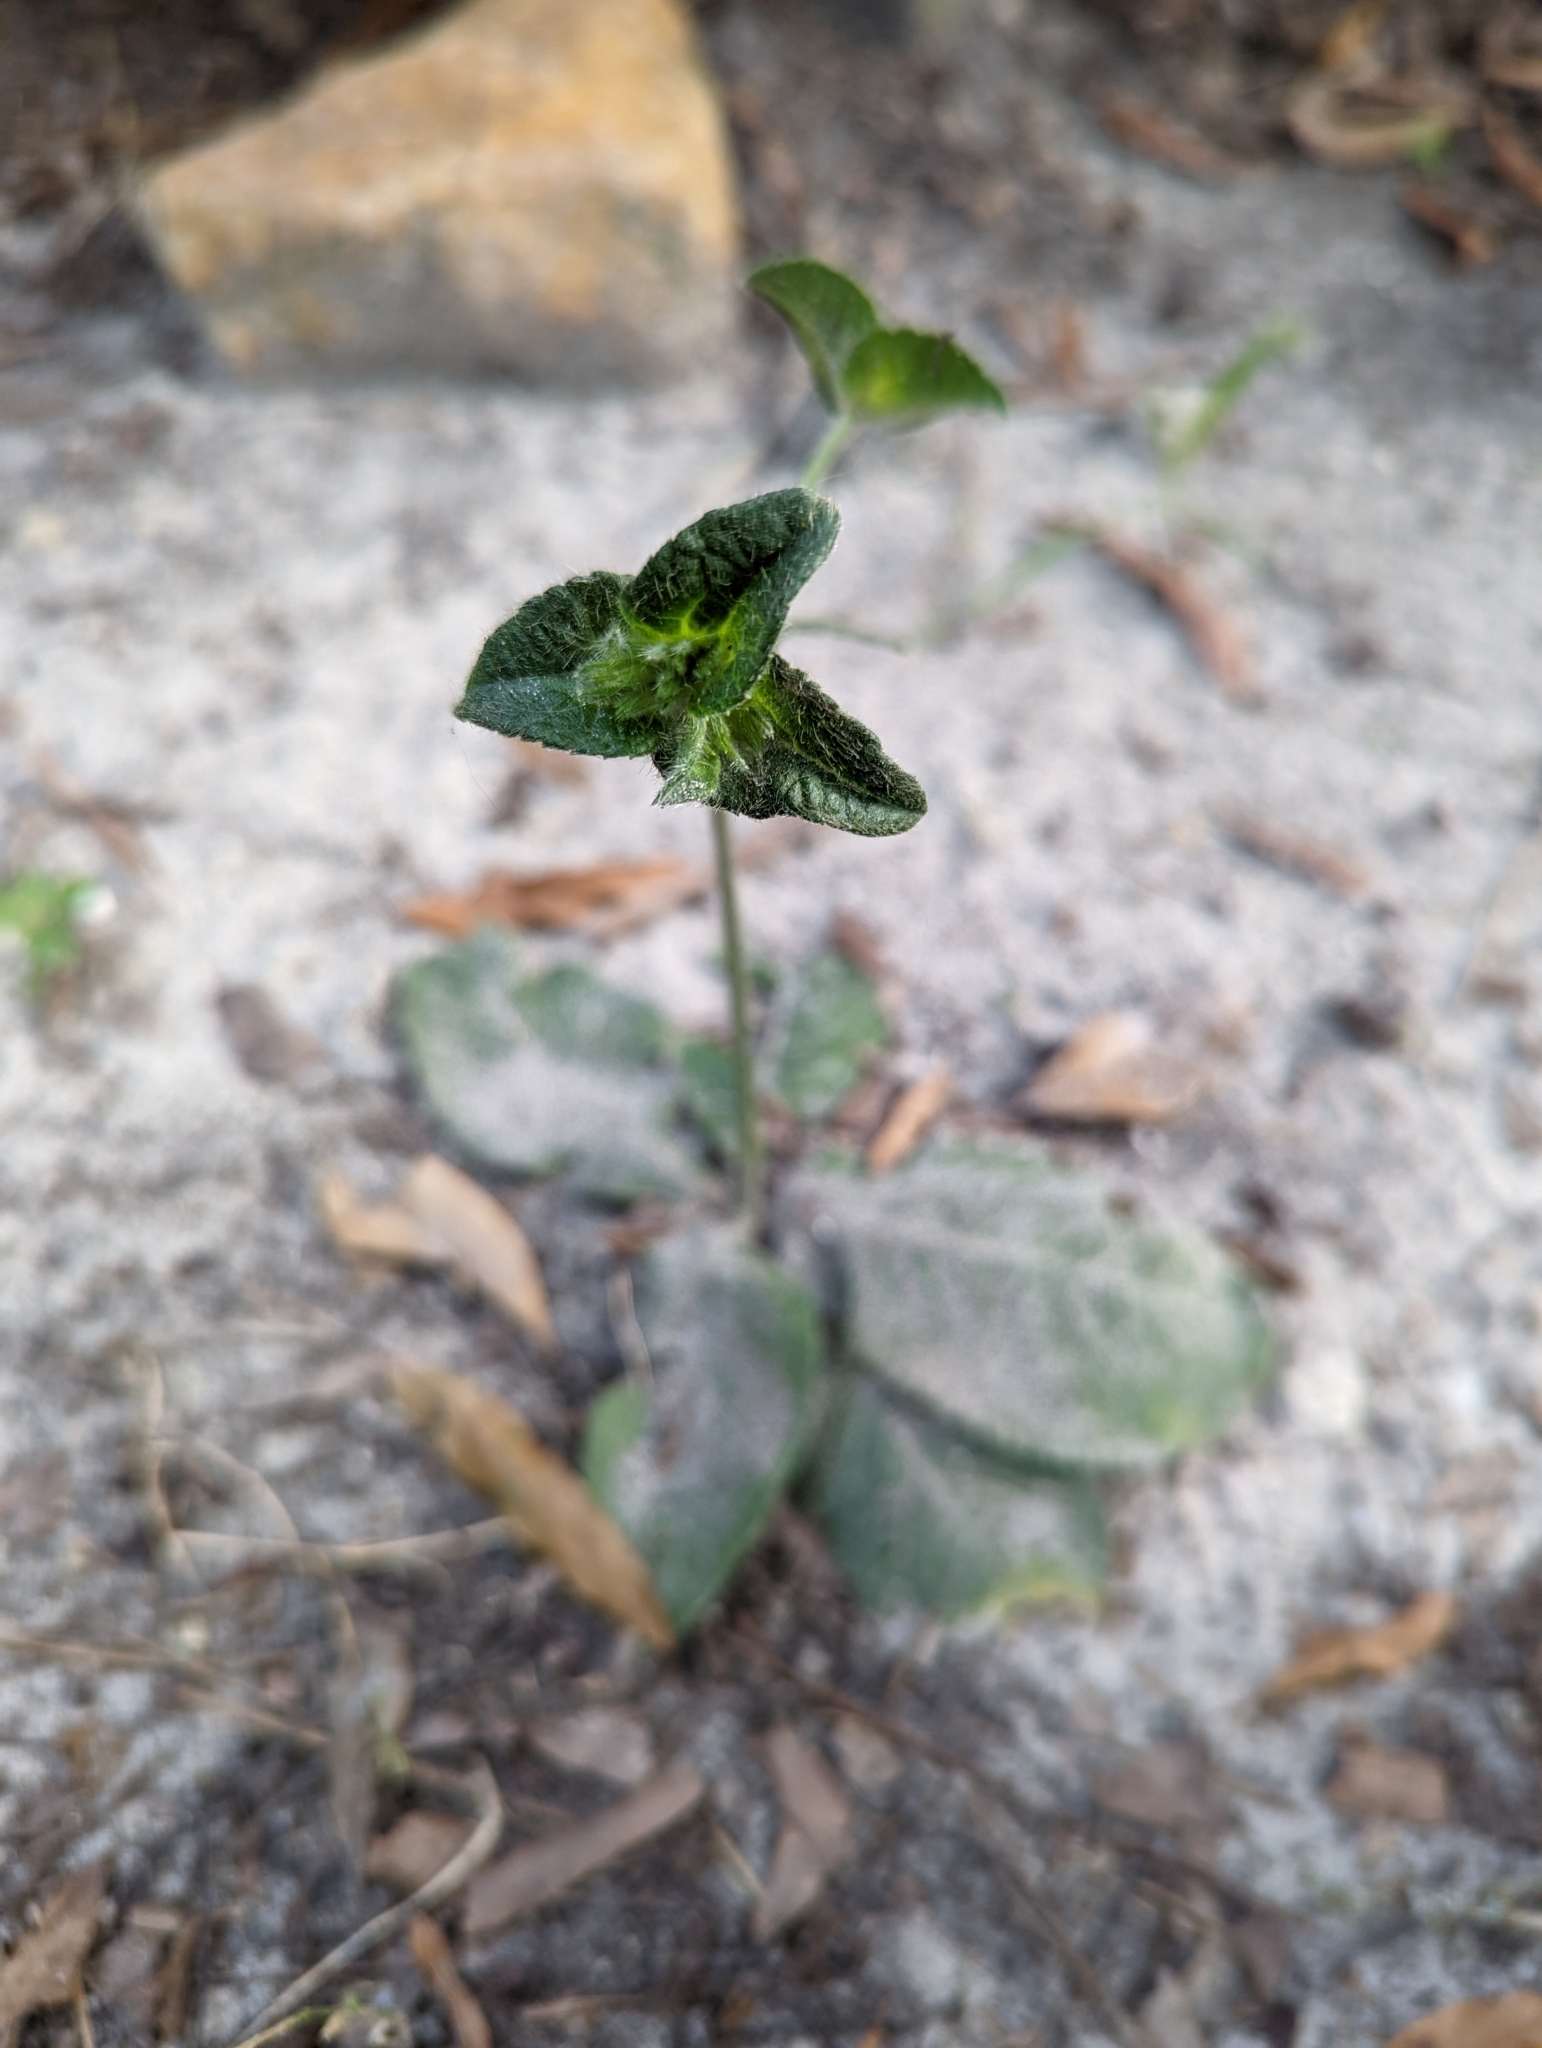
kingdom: Plantae
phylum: Tracheophyta
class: Magnoliopsida
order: Asterales
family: Asteraceae
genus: Elephantopus
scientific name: Elephantopus tomentosus
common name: Tobacco-weed
